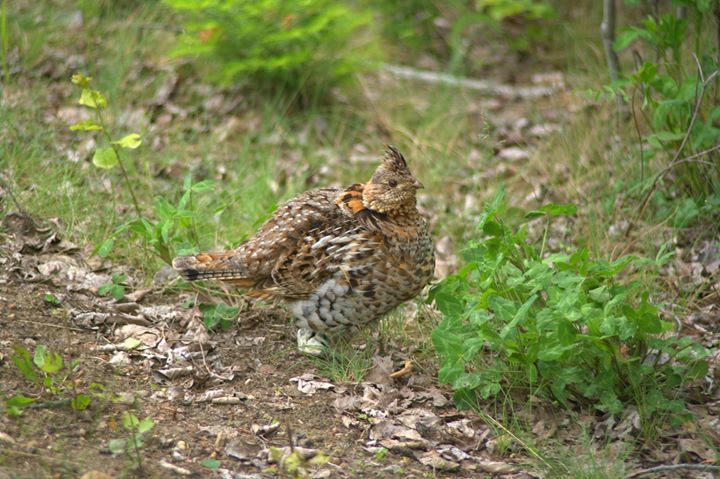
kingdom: Animalia
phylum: Chordata
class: Aves
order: Galliformes
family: Phasianidae
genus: Bonasa
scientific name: Bonasa umbellus
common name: Ruffed grouse
